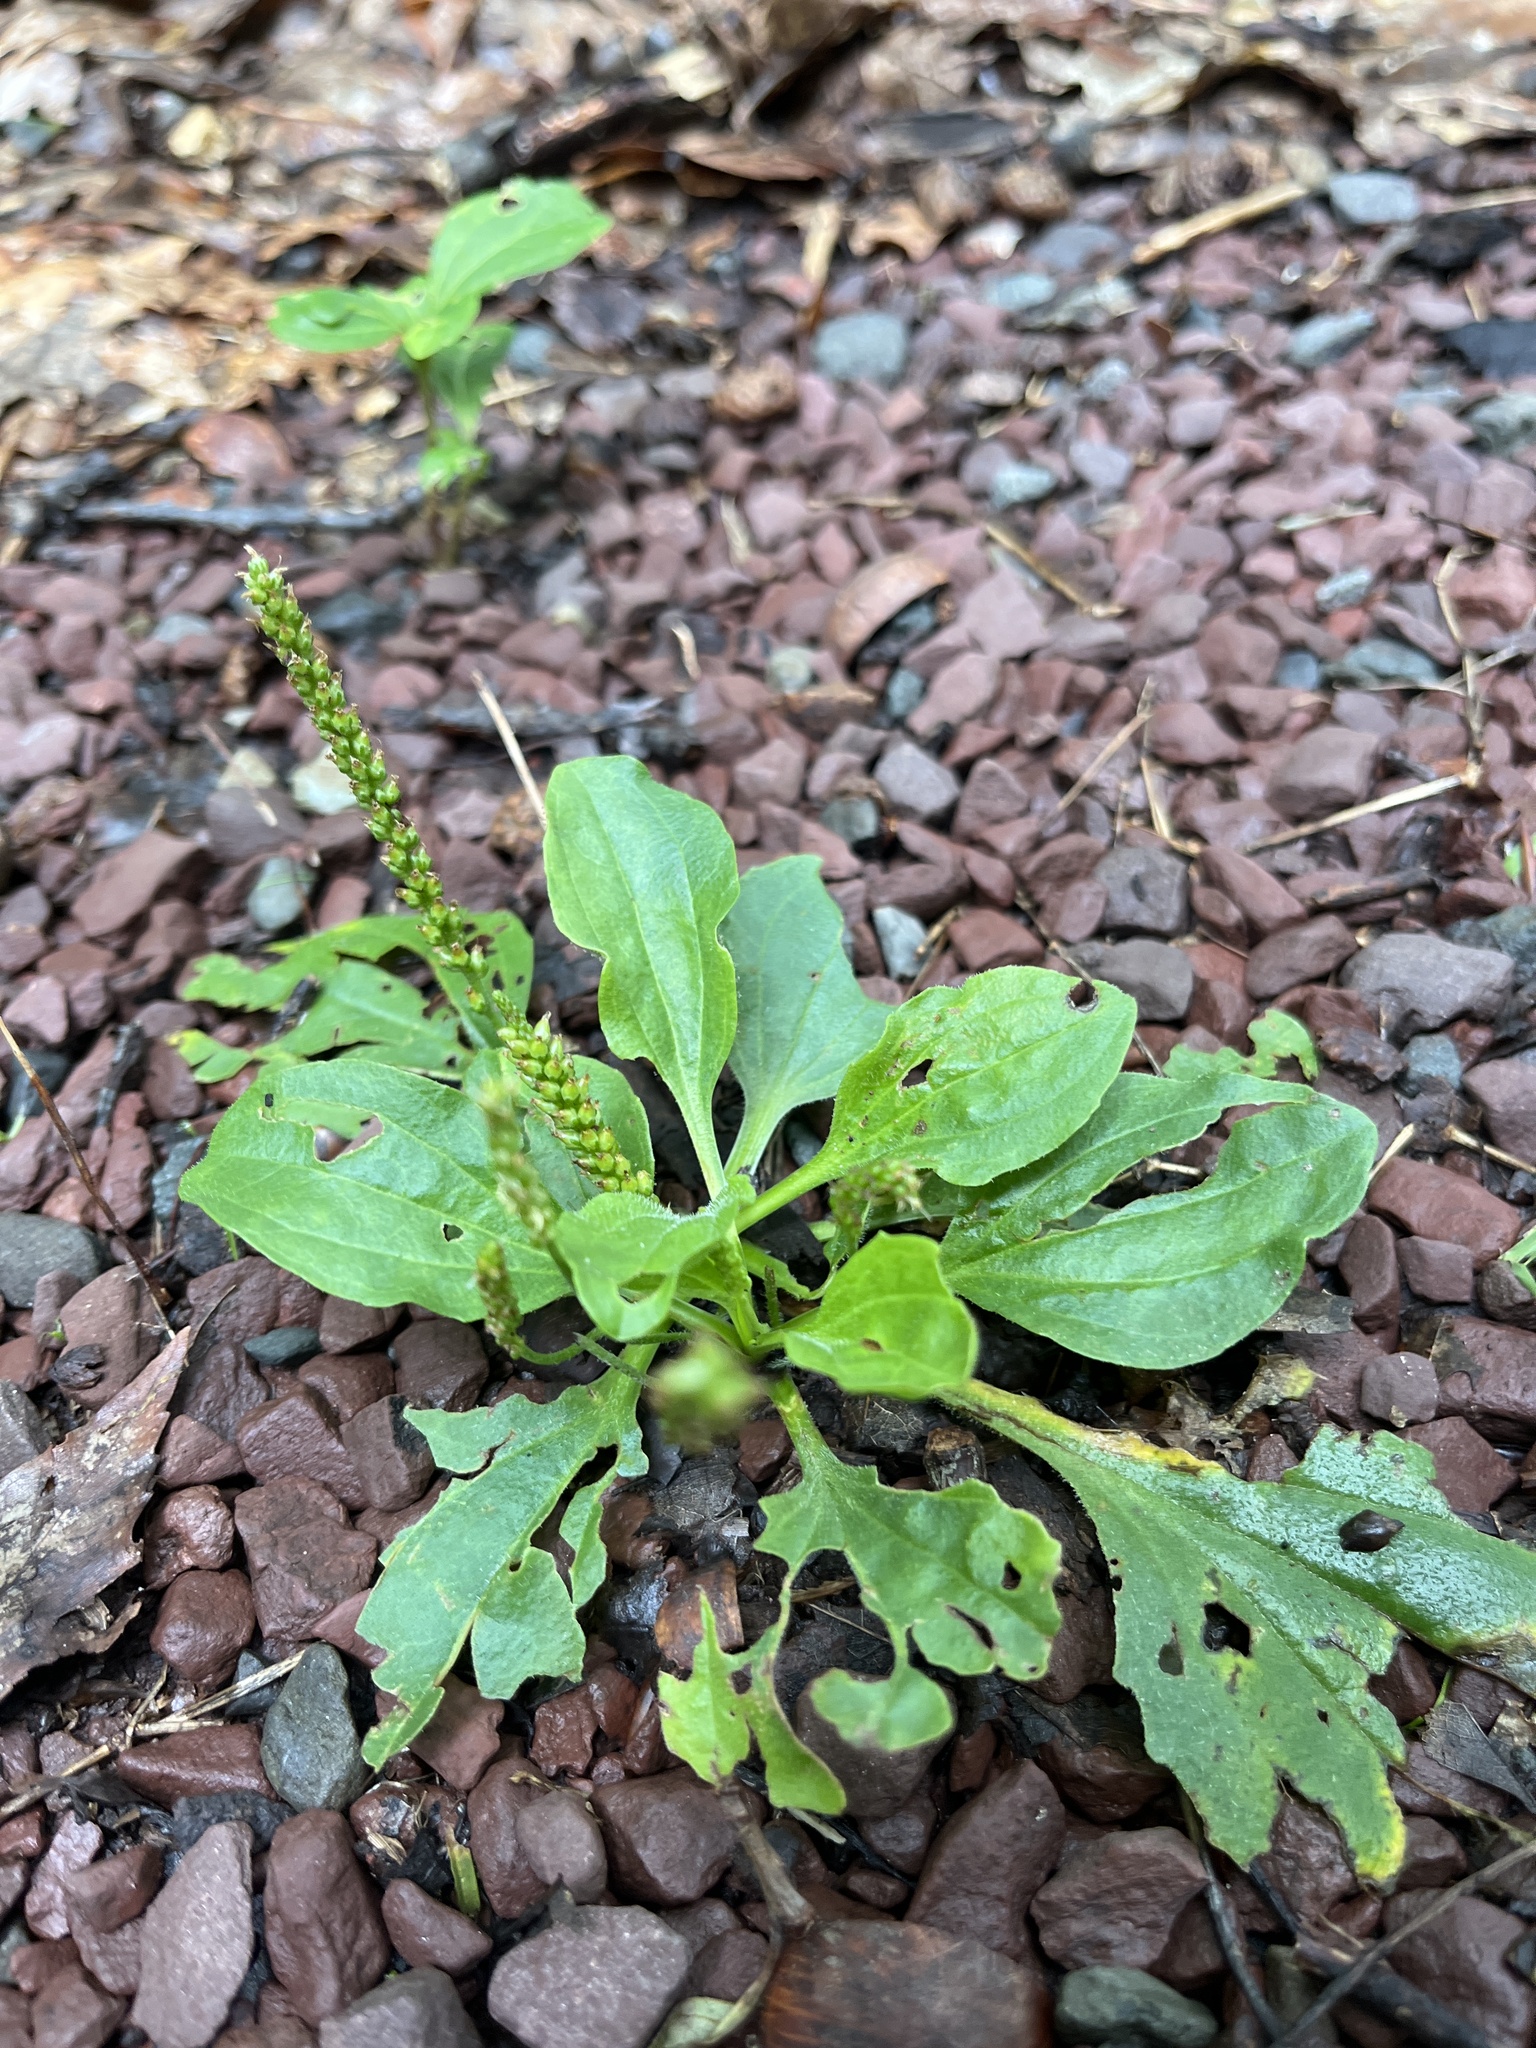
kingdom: Plantae
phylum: Tracheophyta
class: Magnoliopsida
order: Lamiales
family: Plantaginaceae
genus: Plantago
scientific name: Plantago major
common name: Common plantain
